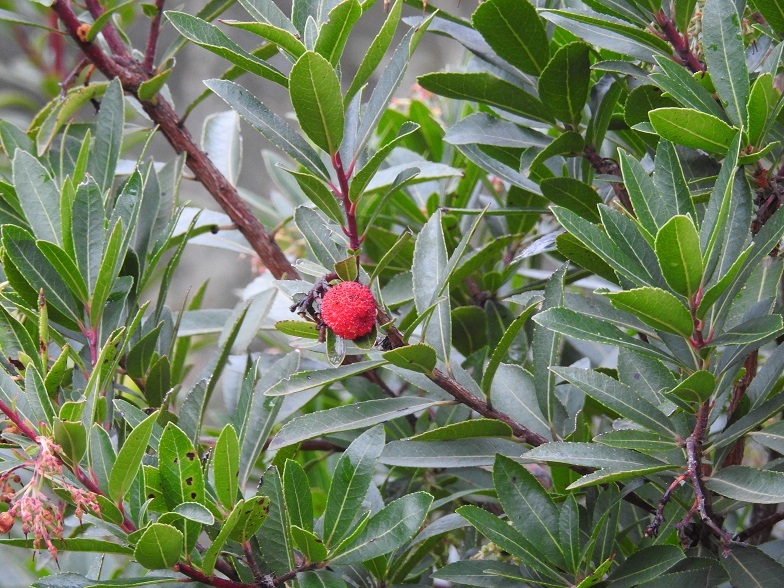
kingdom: Plantae
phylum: Tracheophyta
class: Magnoliopsida
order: Ericales
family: Ericaceae
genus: Arbutus
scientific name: Arbutus unedo
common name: Strawberry-tree
